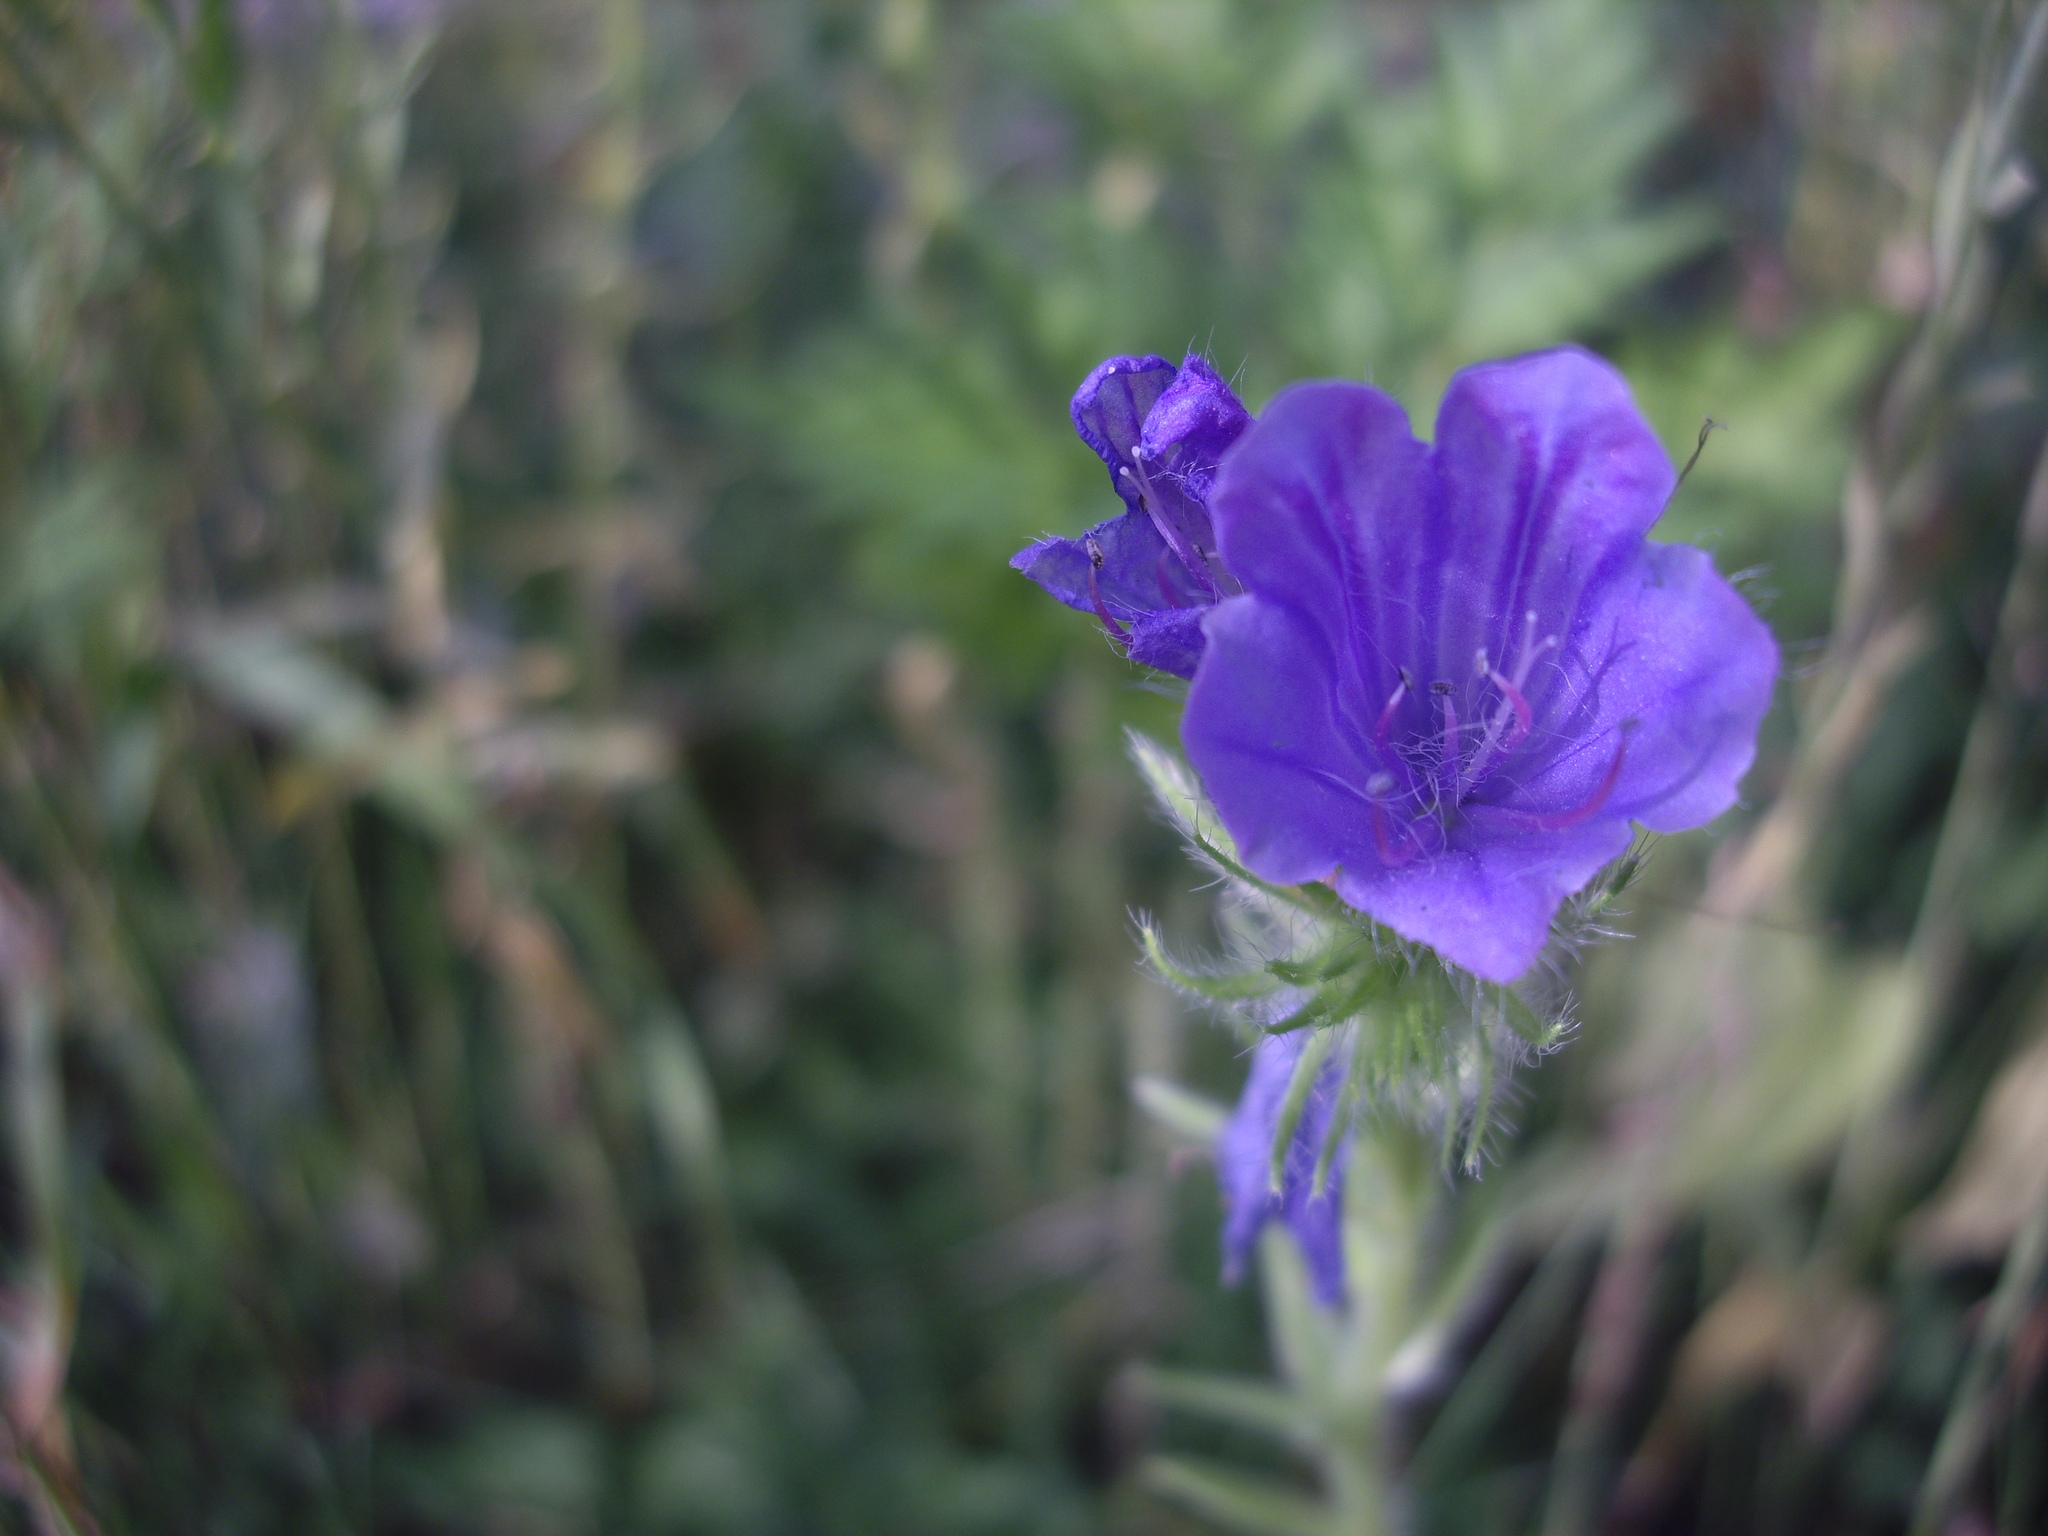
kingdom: Plantae
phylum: Tracheophyta
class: Magnoliopsida
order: Boraginales
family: Boraginaceae
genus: Echium
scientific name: Echium plantagineum
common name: Purple viper's-bugloss
